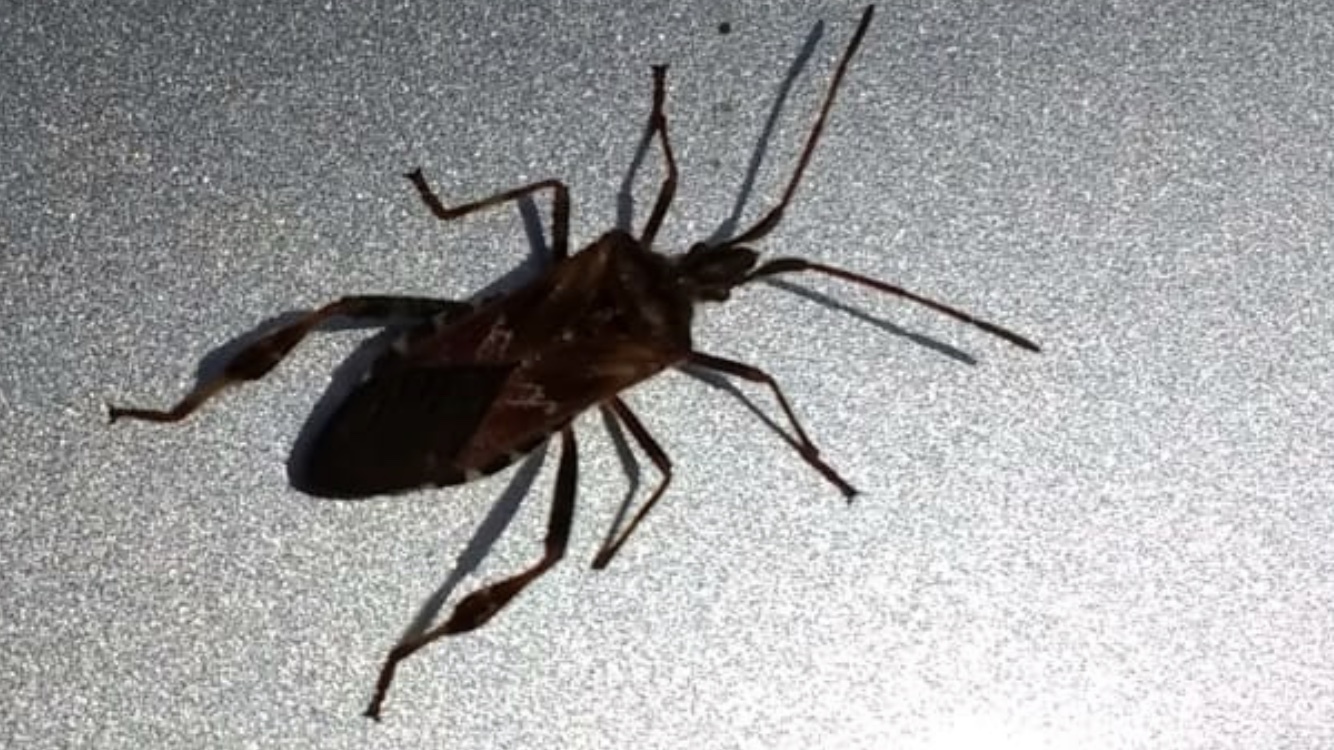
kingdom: Animalia
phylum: Arthropoda
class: Insecta
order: Hemiptera
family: Coreidae
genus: Leptoglossus
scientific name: Leptoglossus occidentalis
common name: Western conifer-seed bug
